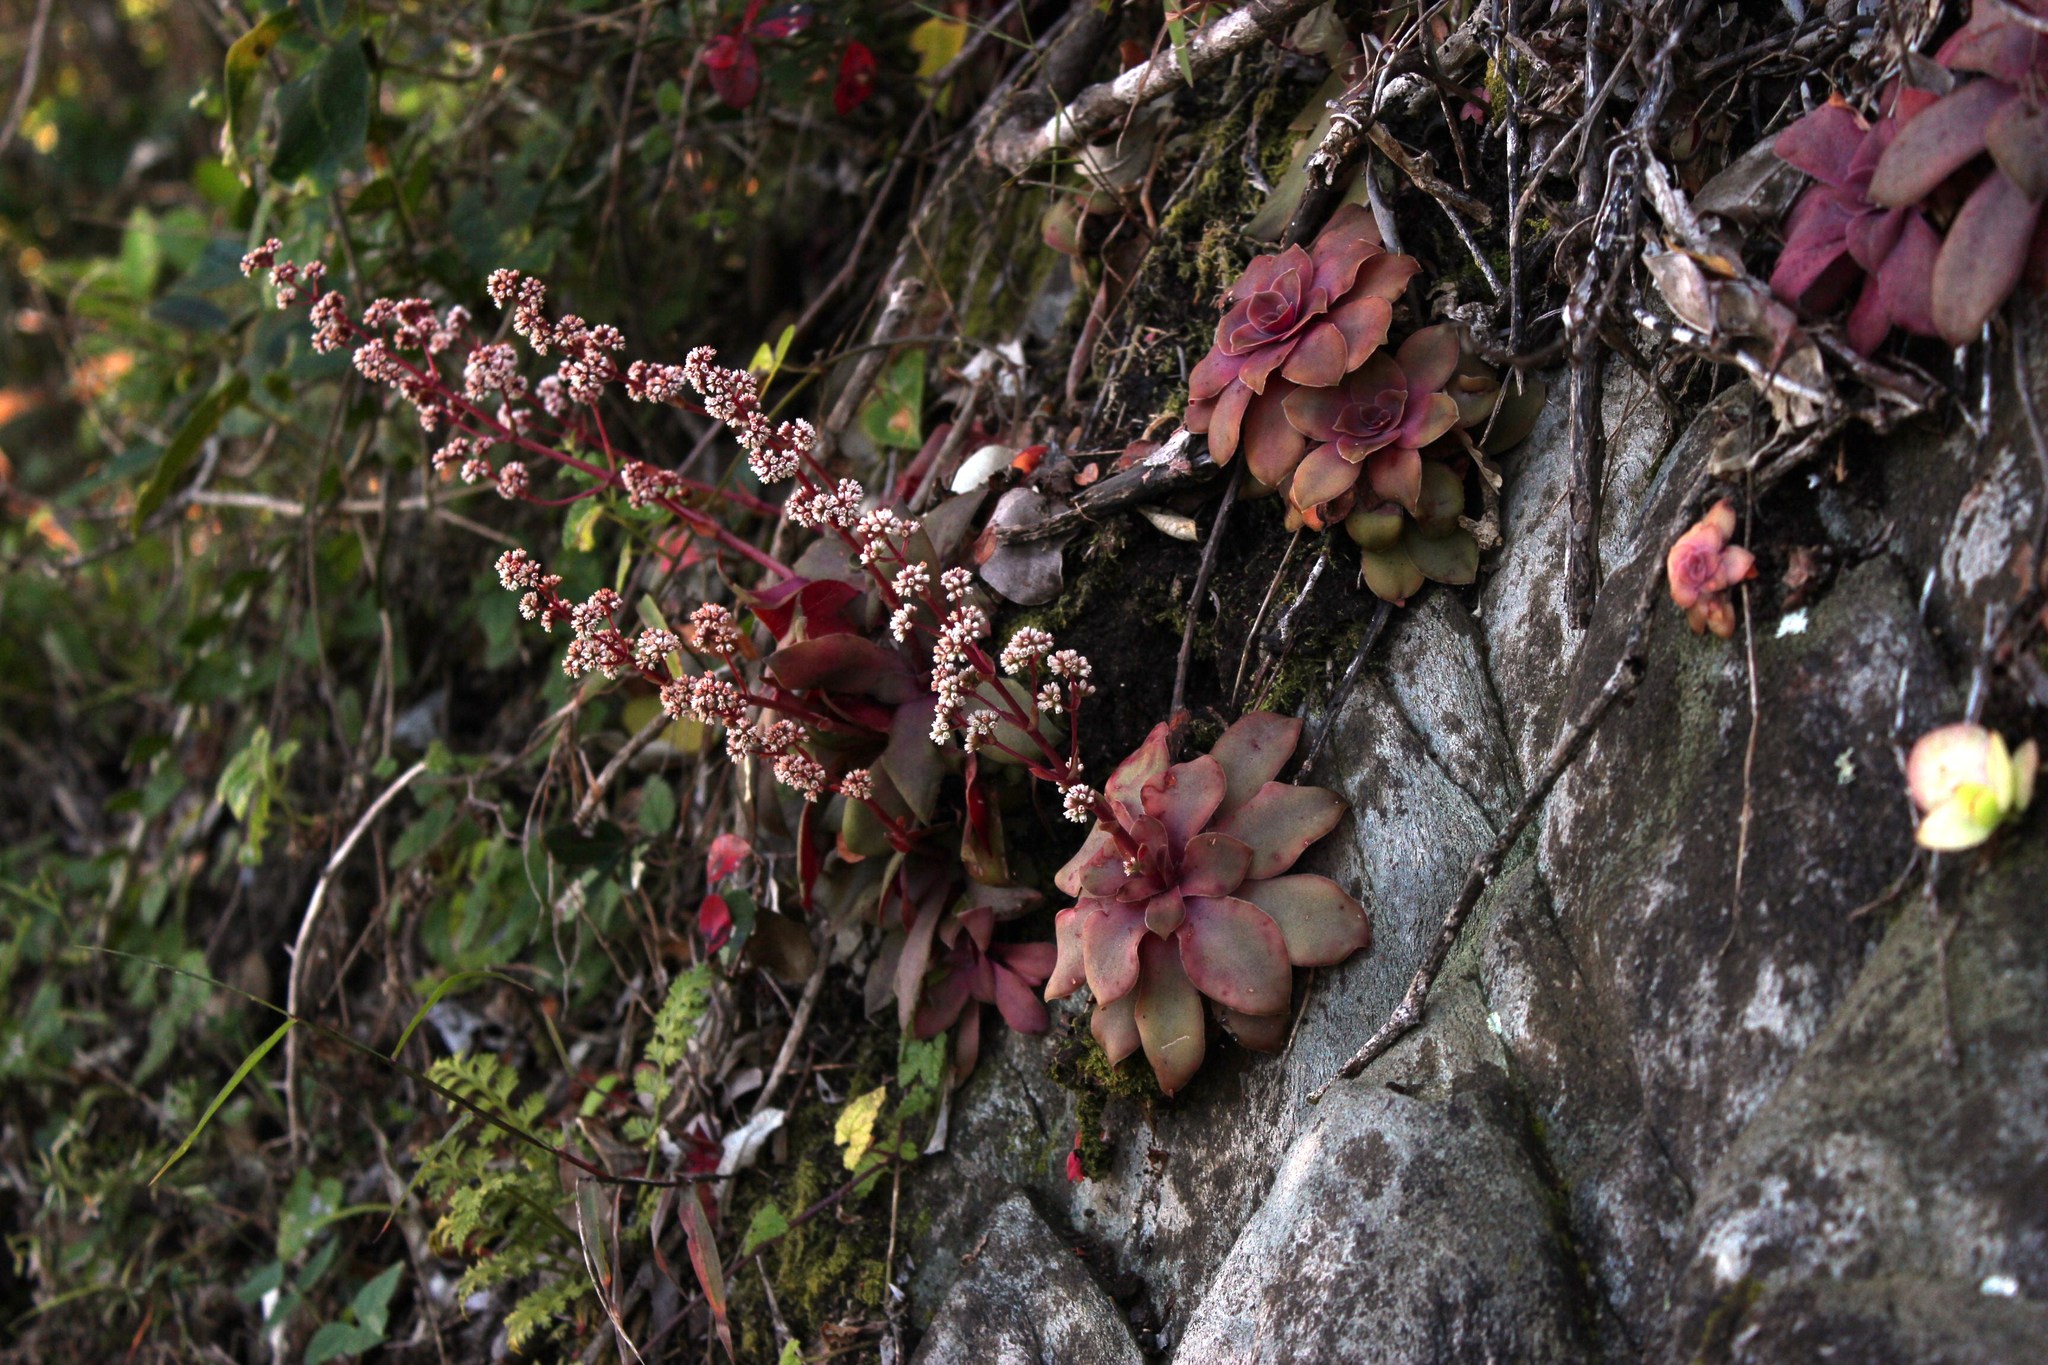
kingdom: Plantae
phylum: Tracheophyta
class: Magnoliopsida
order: Saxifragales
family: Crassulaceae
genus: Crassula
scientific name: Crassula orbicularis
